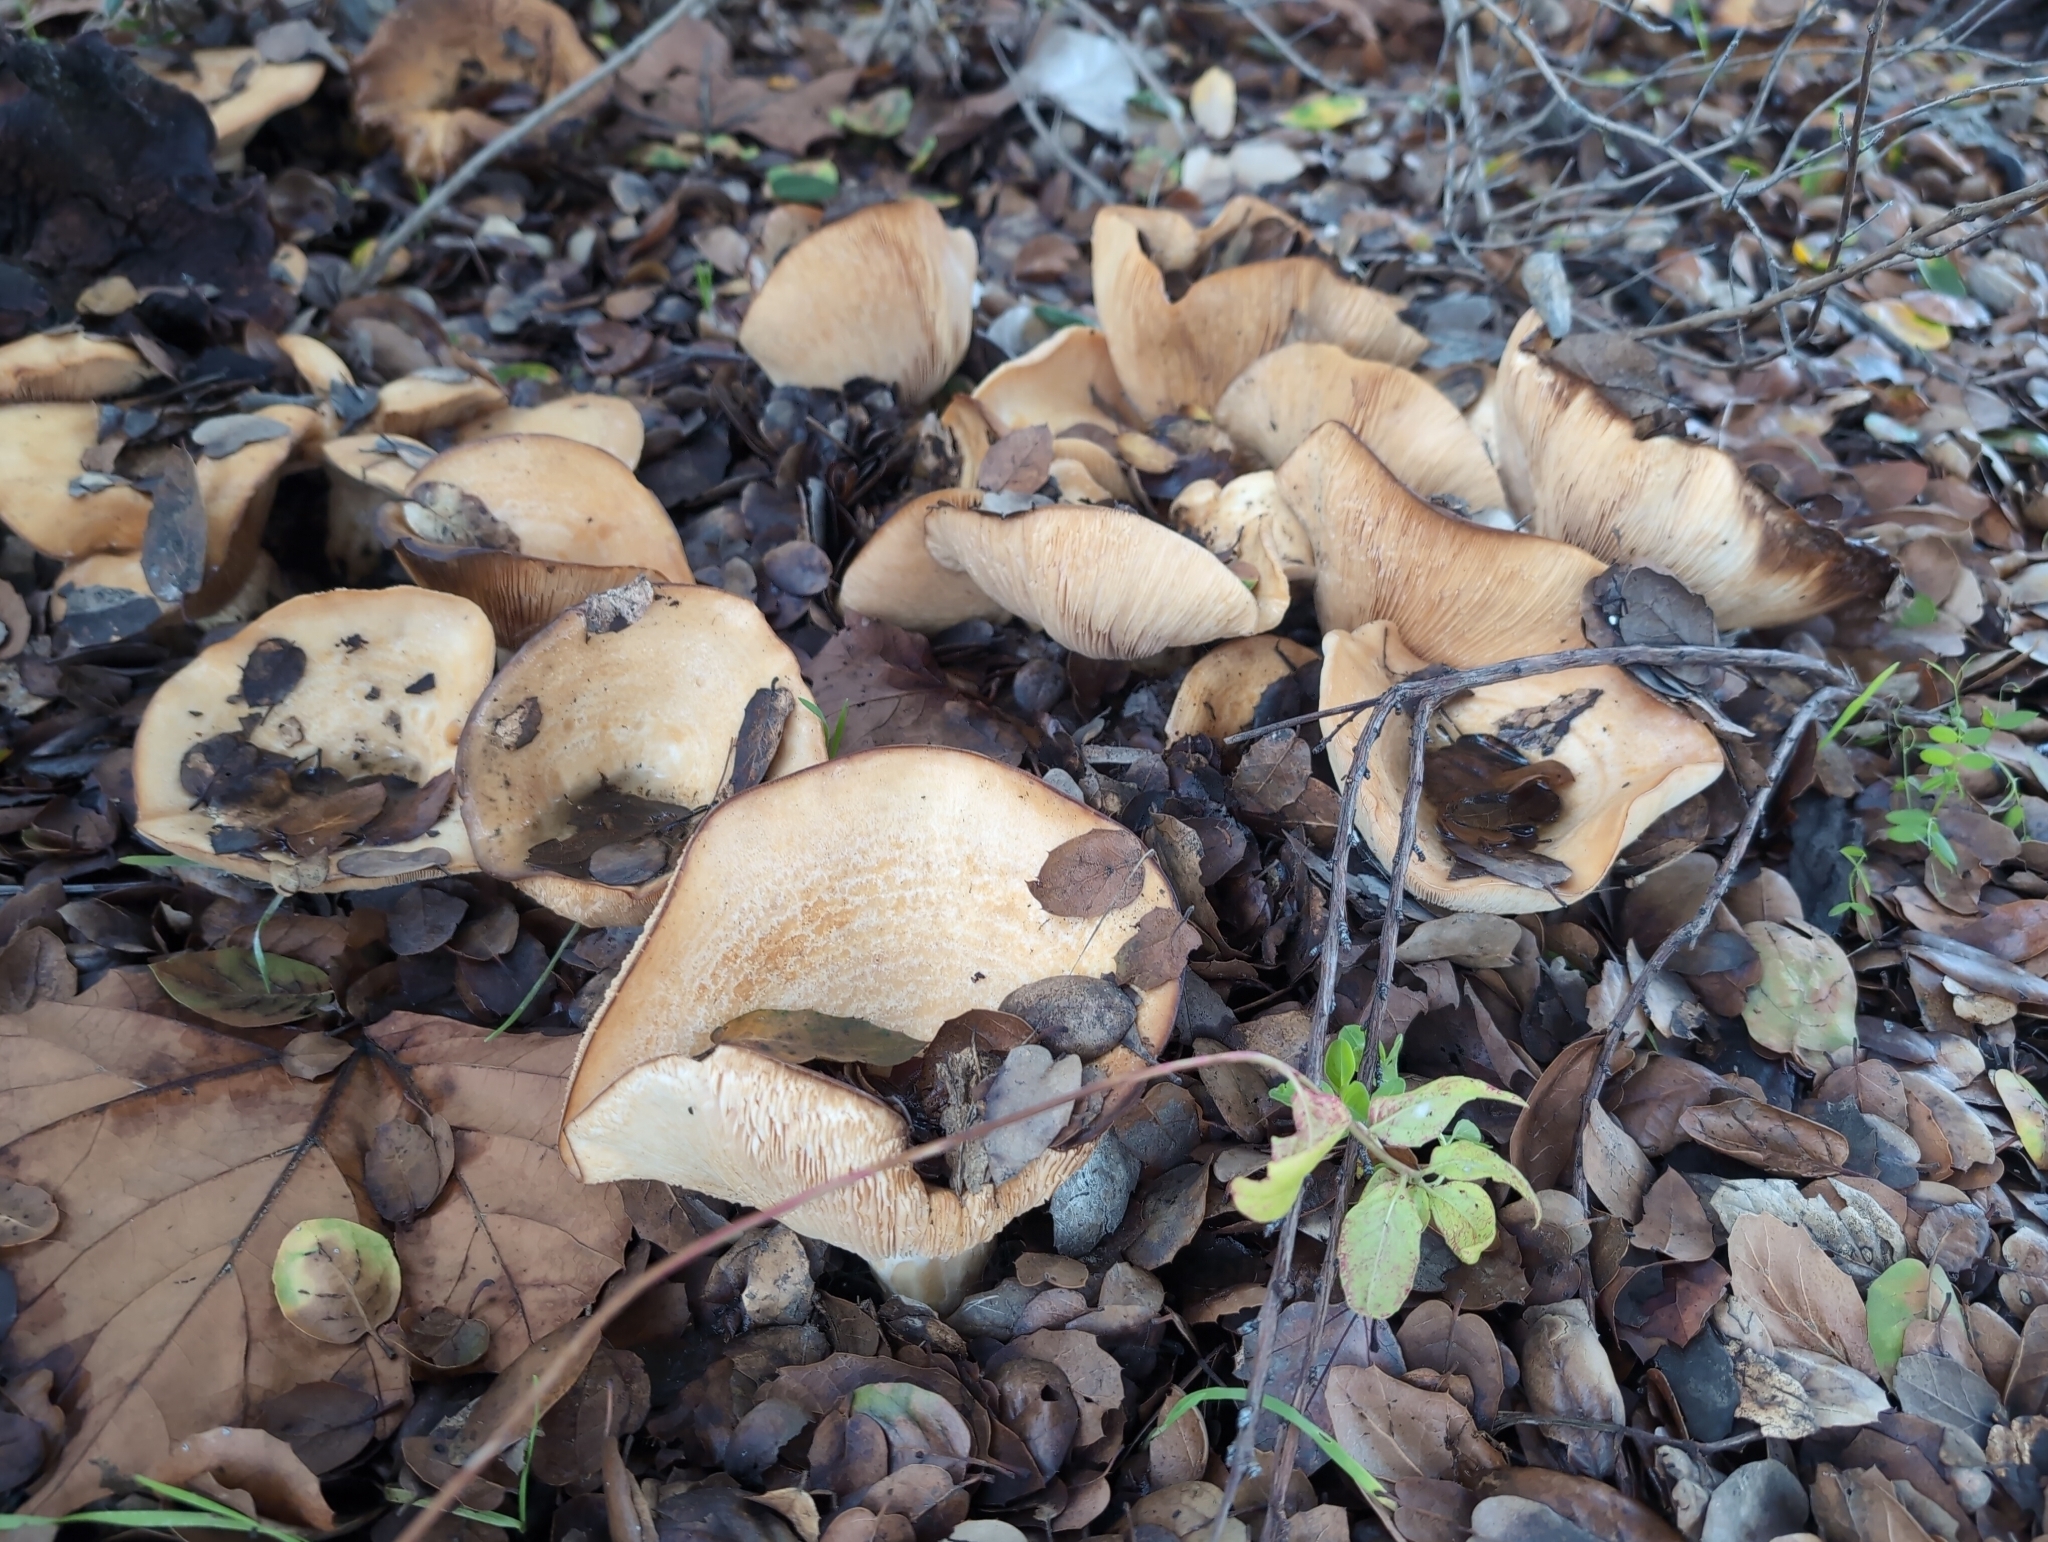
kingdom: Fungi
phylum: Basidiomycota
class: Agaricomycetes
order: Russulales
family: Russulaceae
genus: Lactarius
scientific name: Lactarius alnicola
